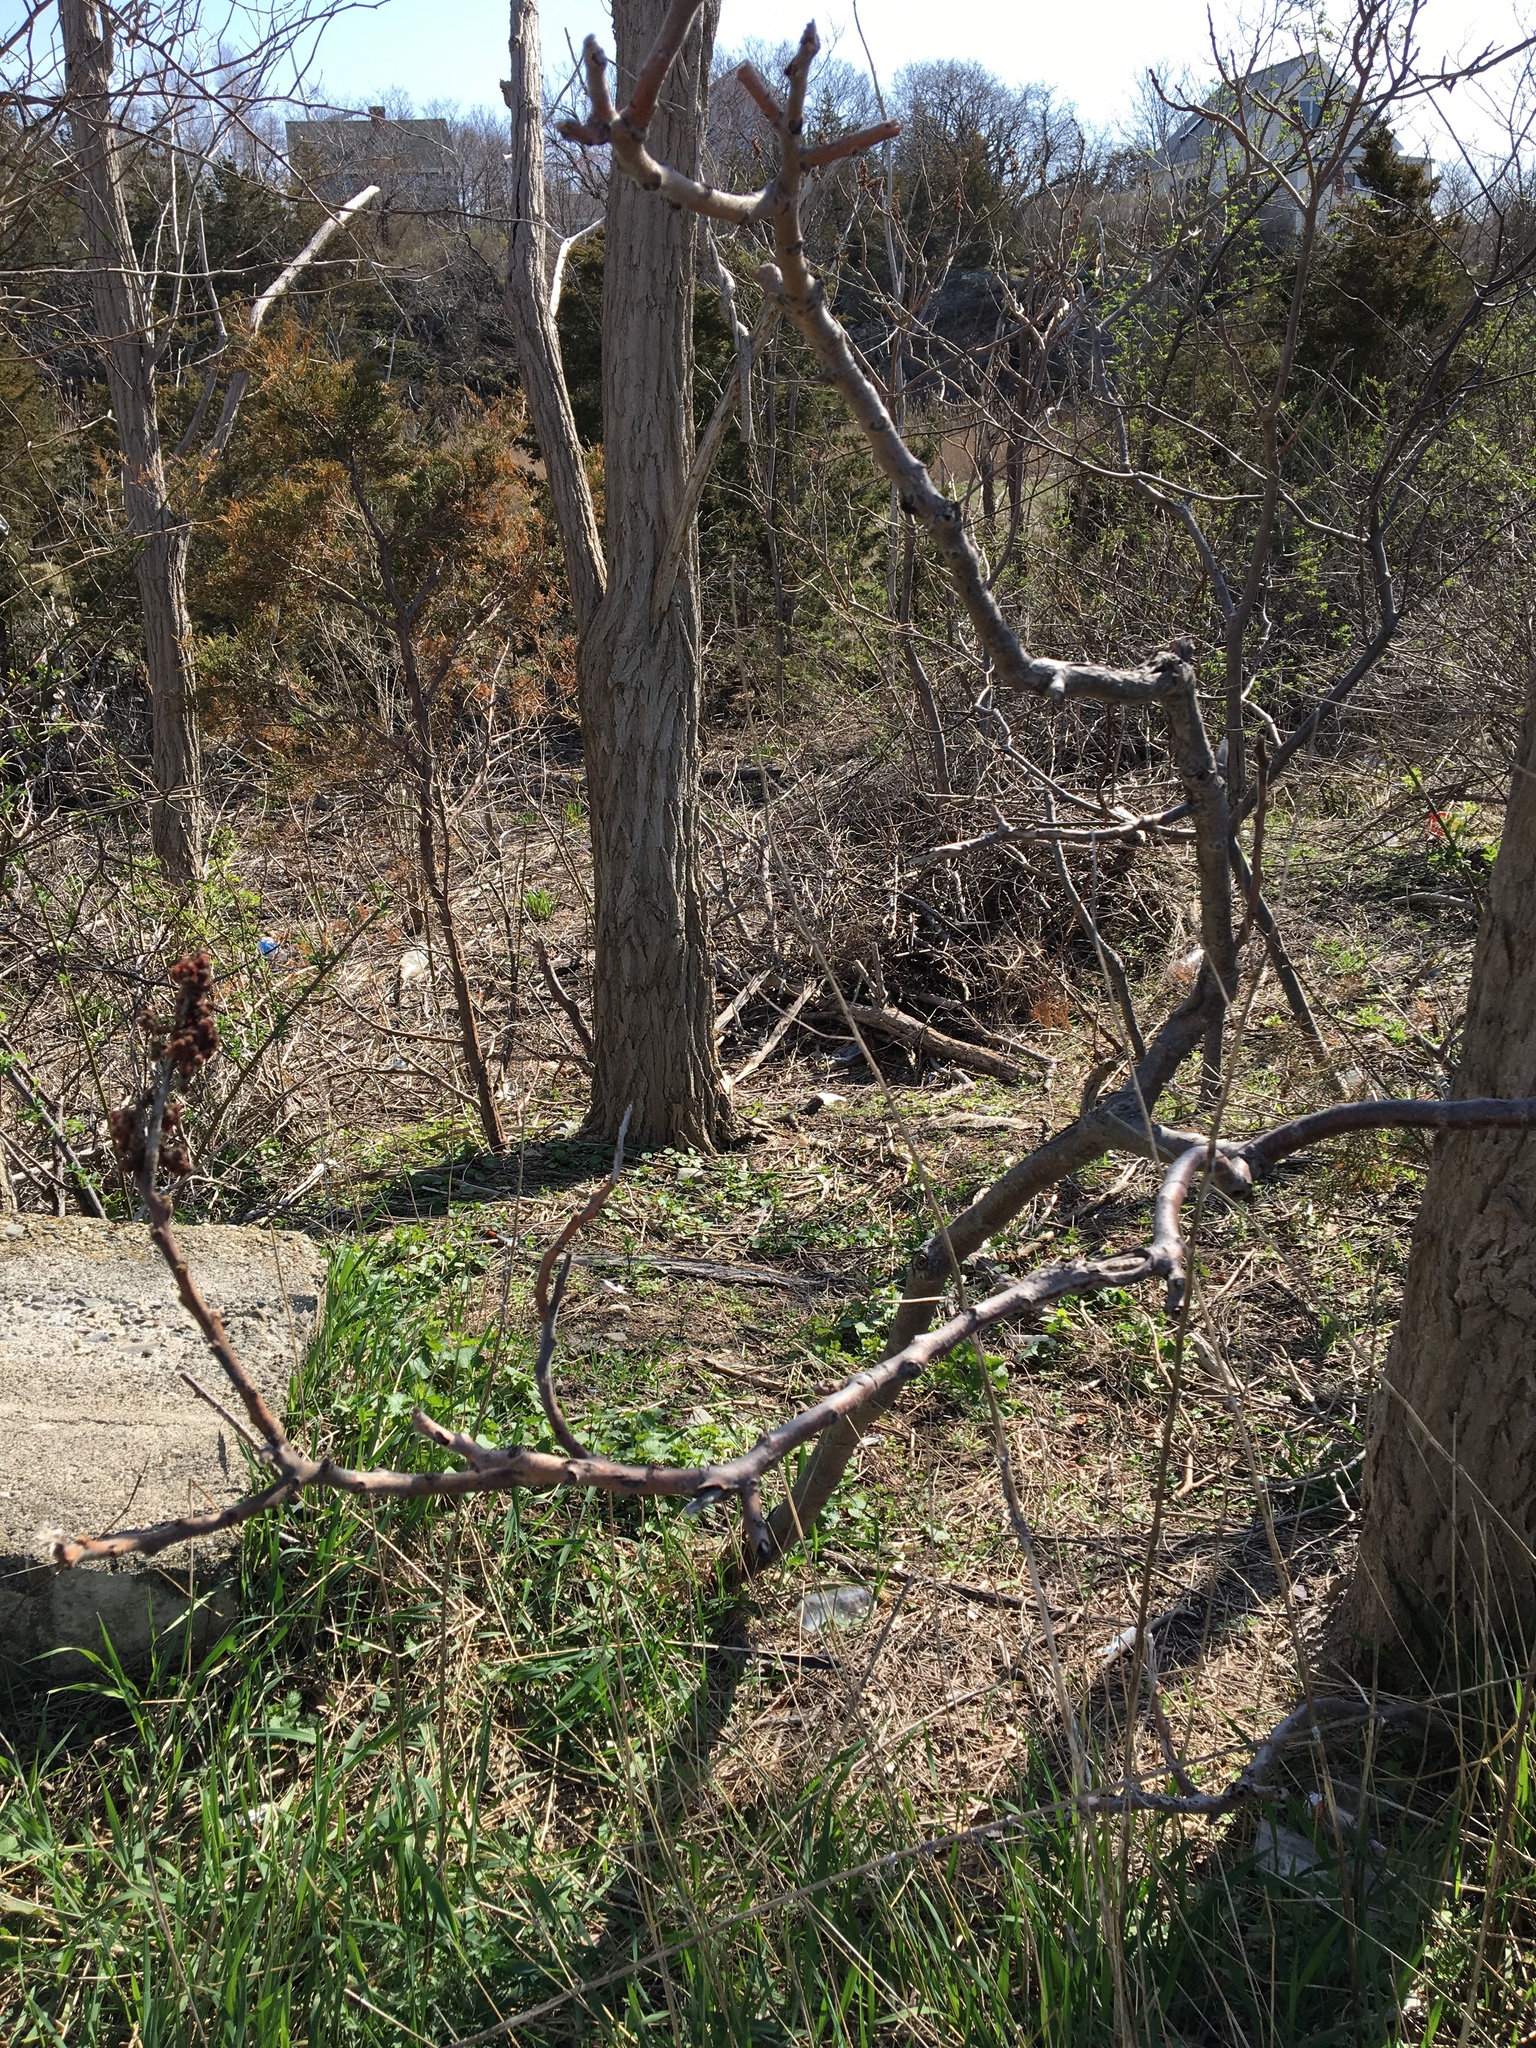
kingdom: Plantae
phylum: Tracheophyta
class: Magnoliopsida
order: Sapindales
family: Anacardiaceae
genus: Rhus
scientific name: Rhus typhina
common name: Staghorn sumac
